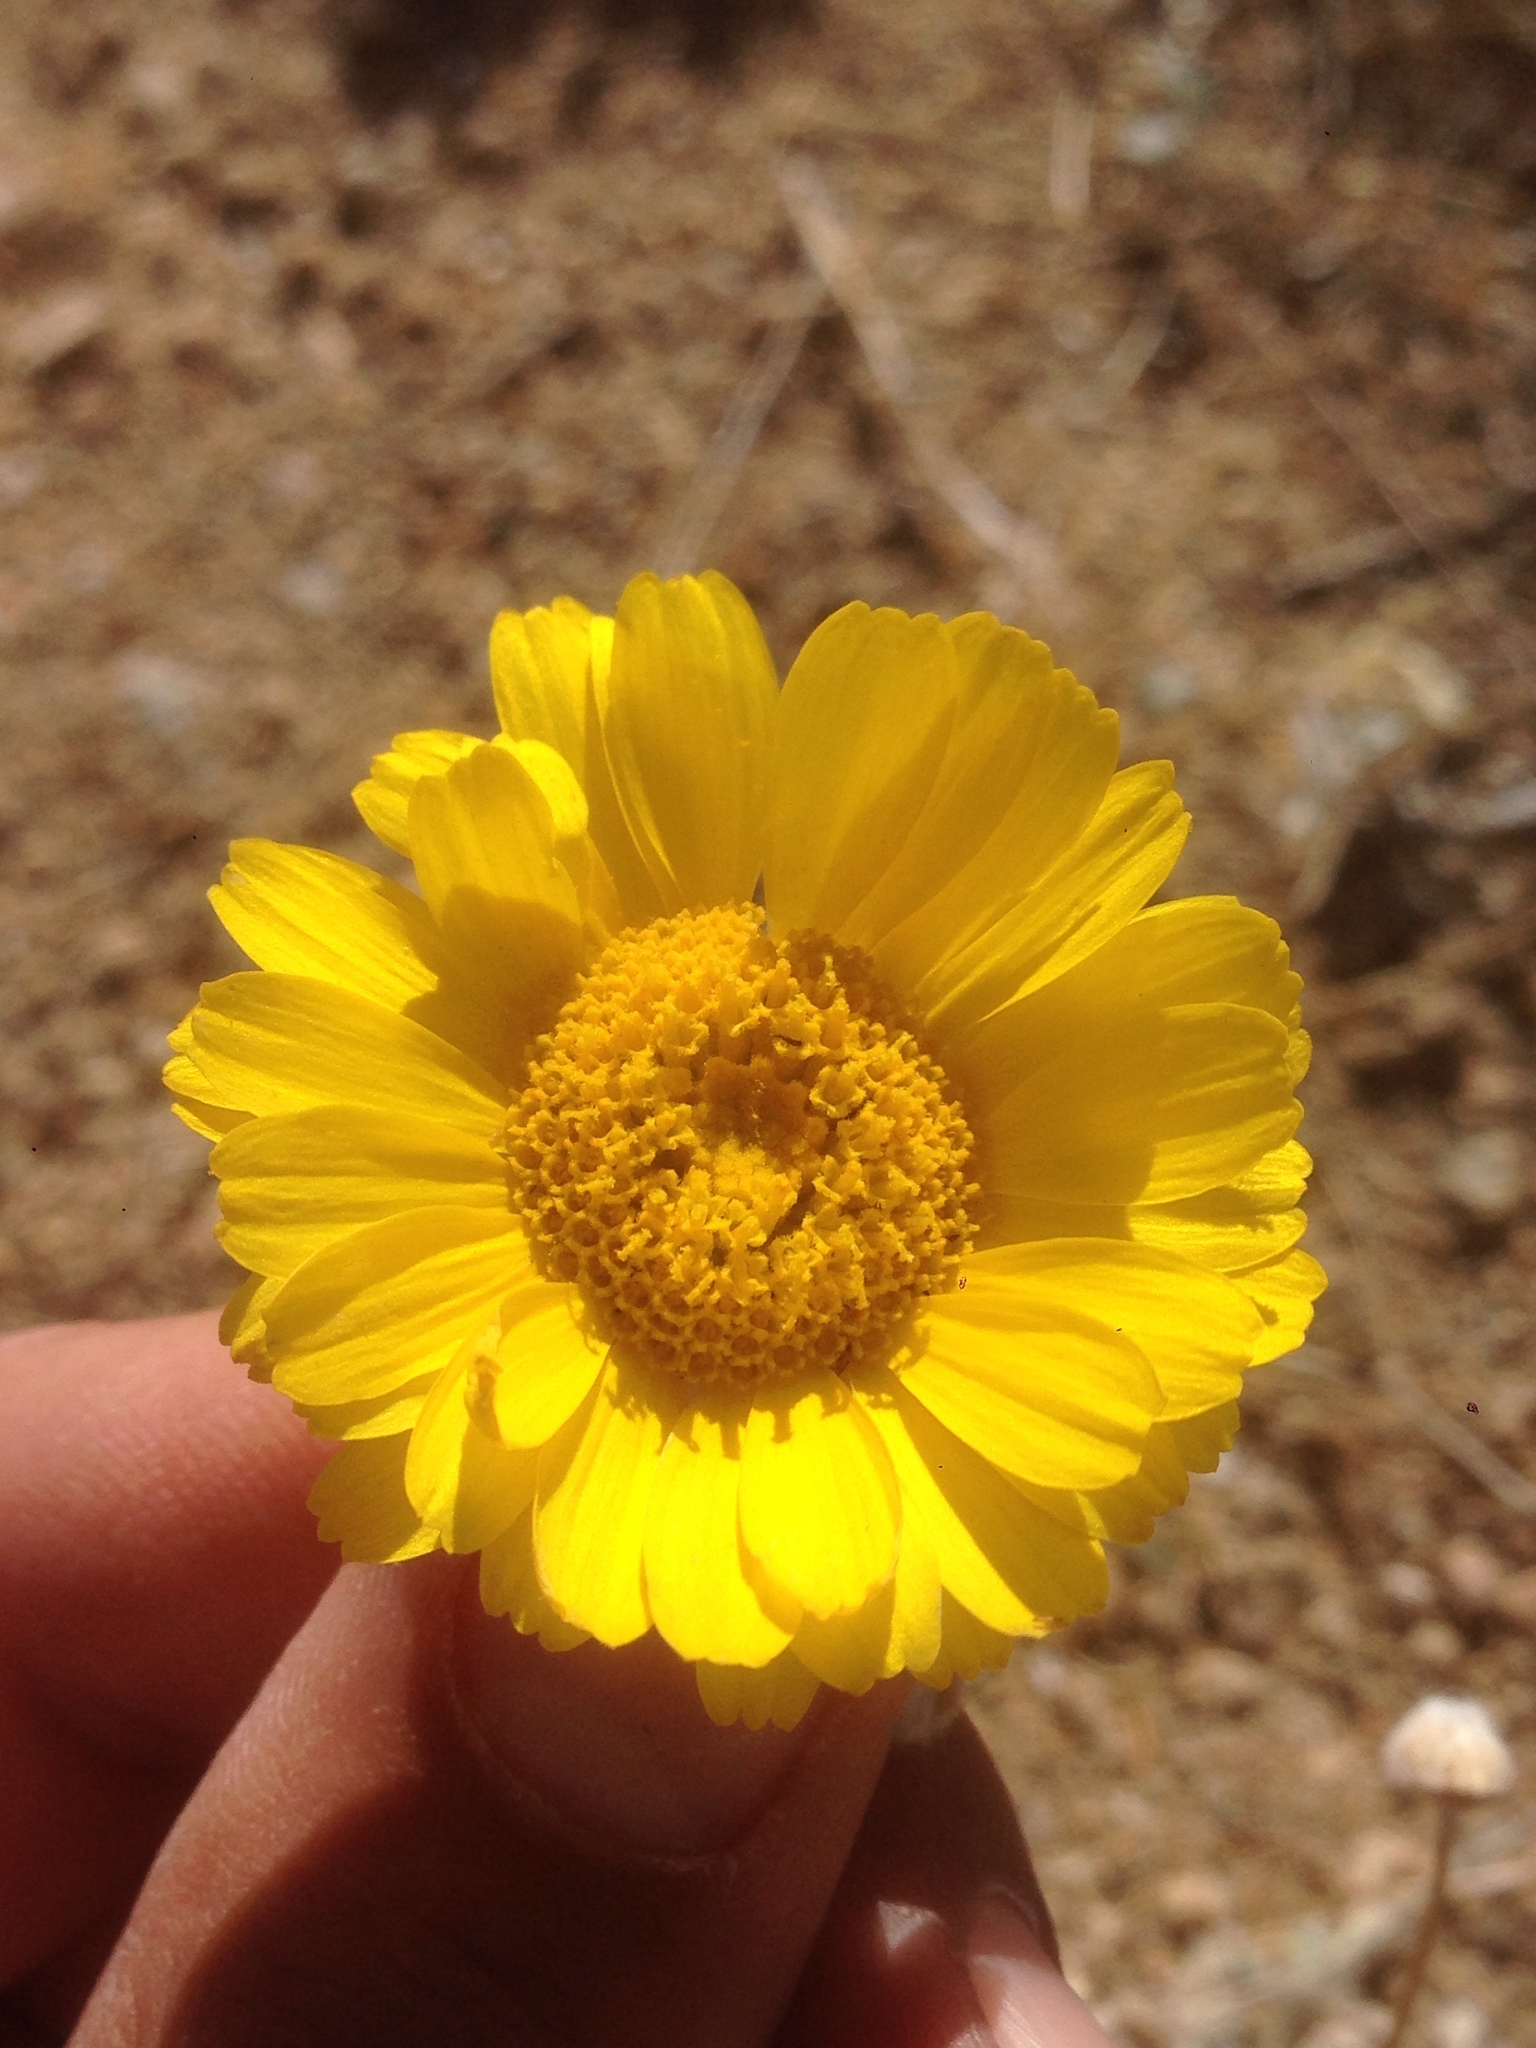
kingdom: Plantae
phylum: Tracheophyta
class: Magnoliopsida
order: Asterales
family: Asteraceae
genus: Baileya
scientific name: Baileya multiradiata
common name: Desert-marigold
